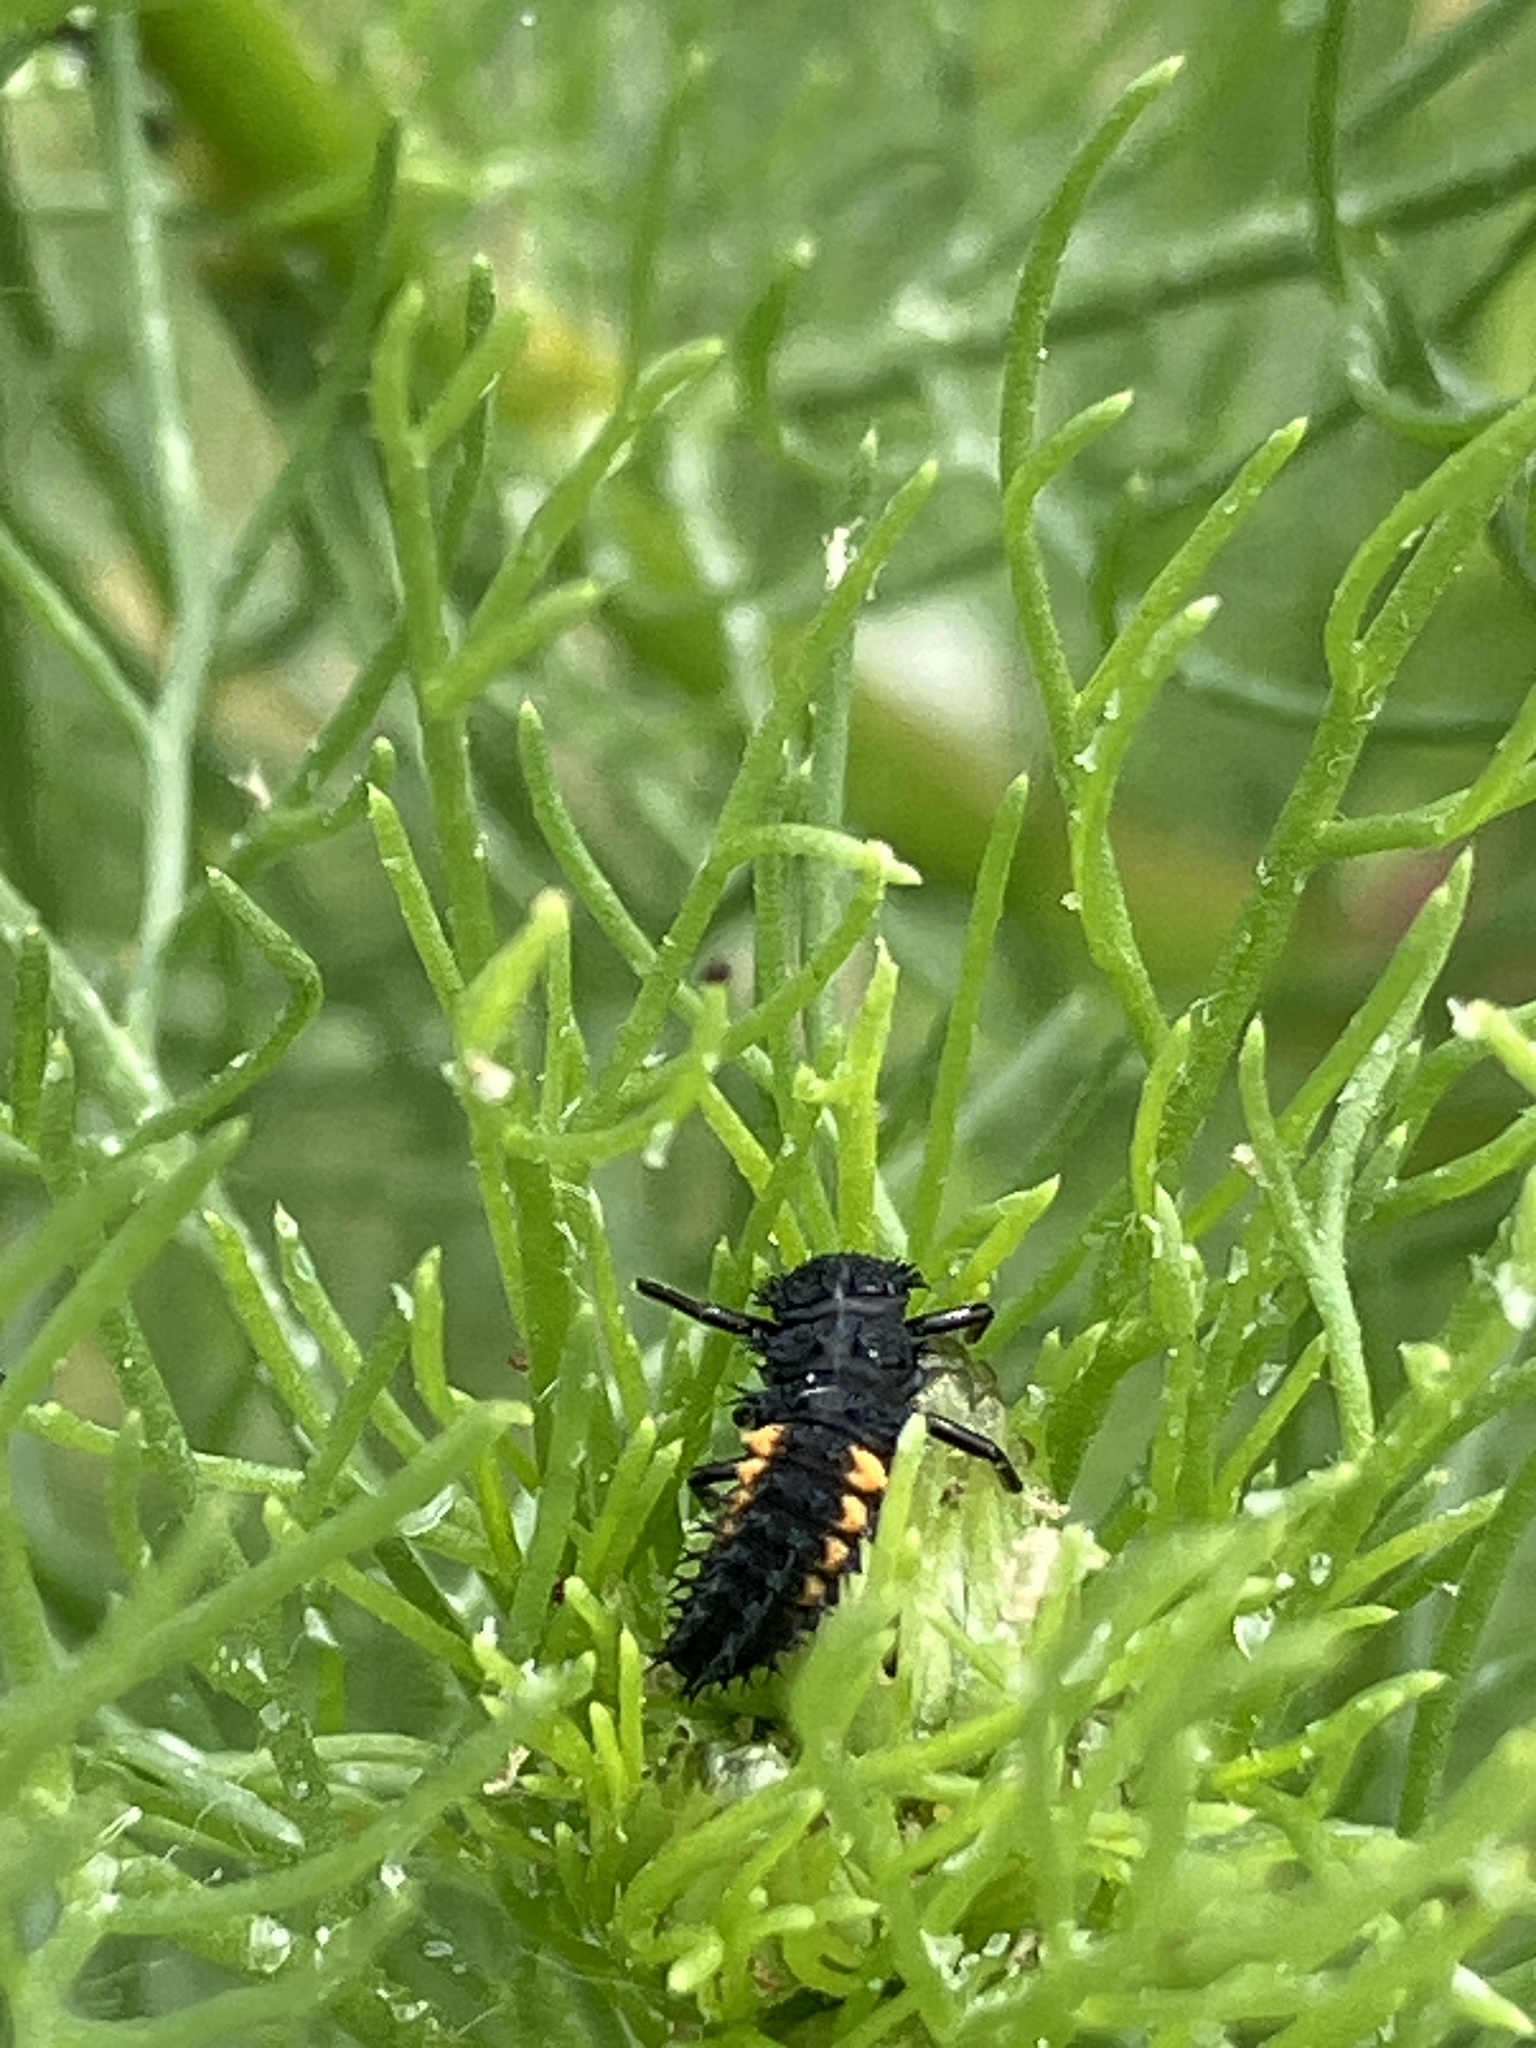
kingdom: Animalia
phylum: Arthropoda
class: Insecta
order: Coleoptera
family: Coccinellidae
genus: Harmonia
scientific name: Harmonia axyridis
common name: Harlequin ladybird
